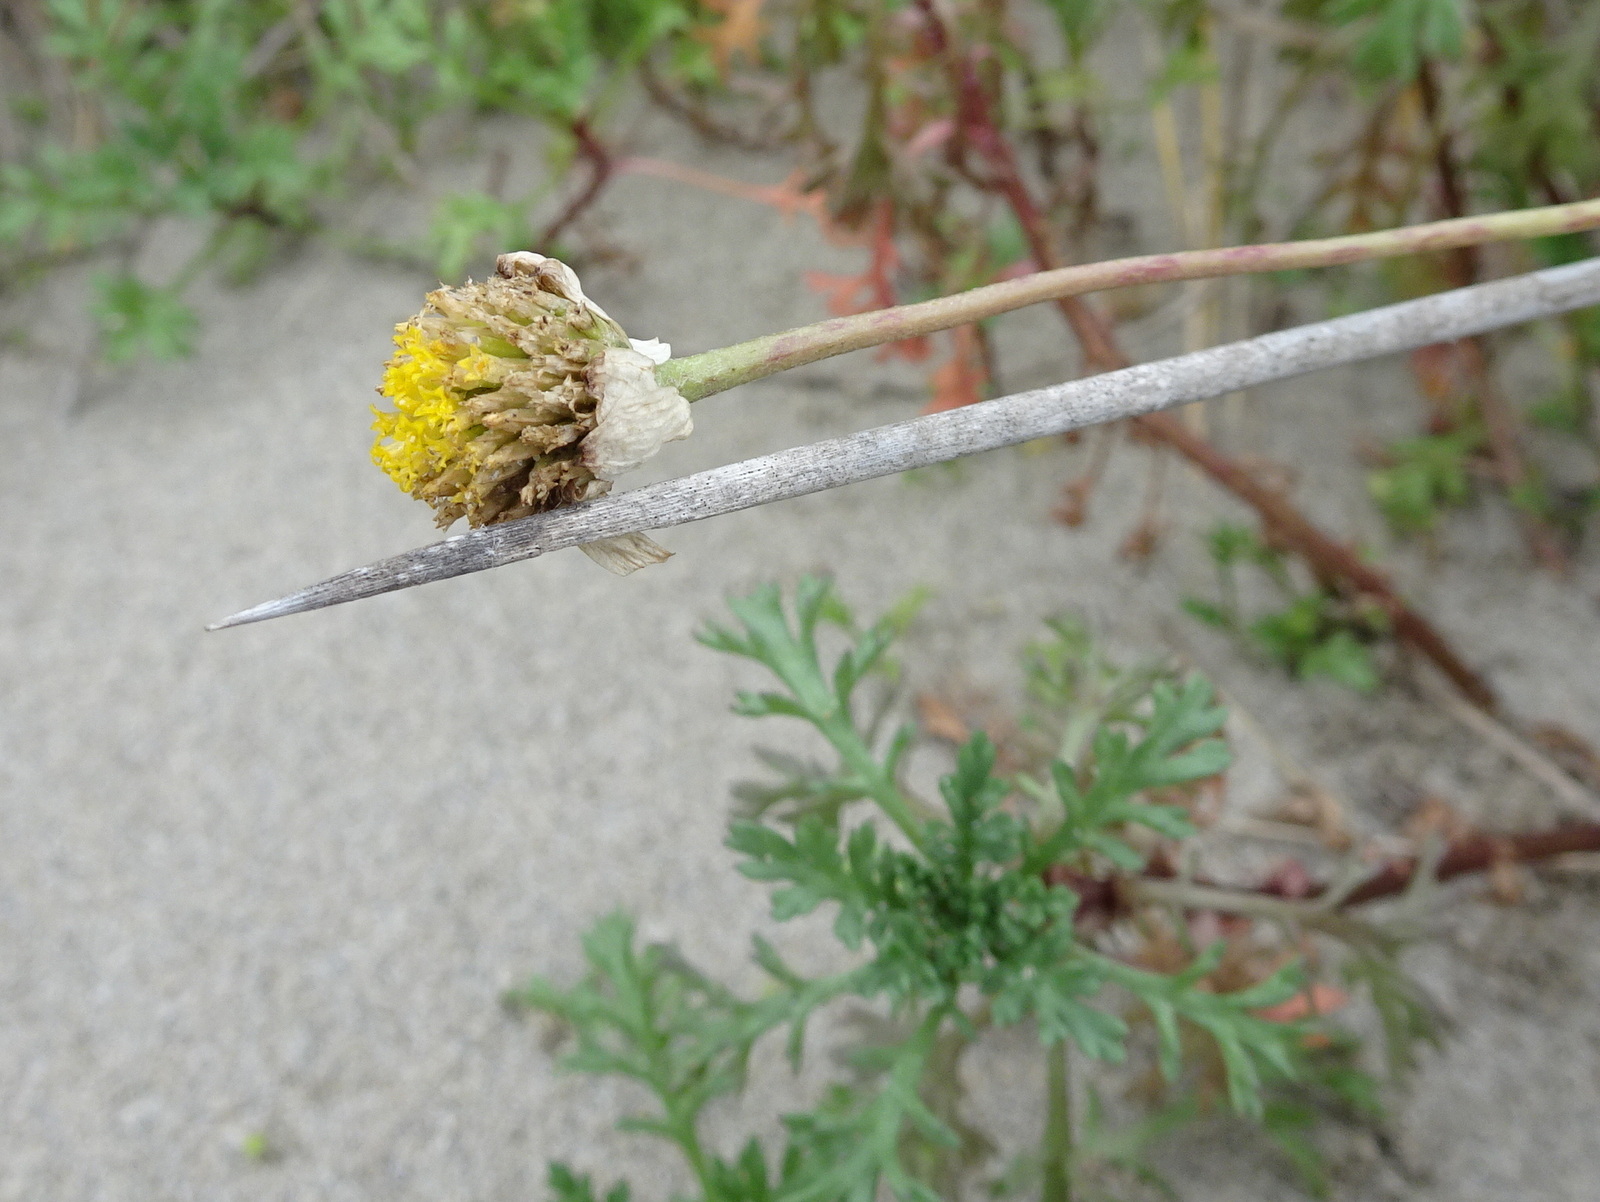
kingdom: Plantae
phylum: Tracheophyta
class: Magnoliopsida
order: Asterales
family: Asteraceae
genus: Anthemis
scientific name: Anthemis maritima
